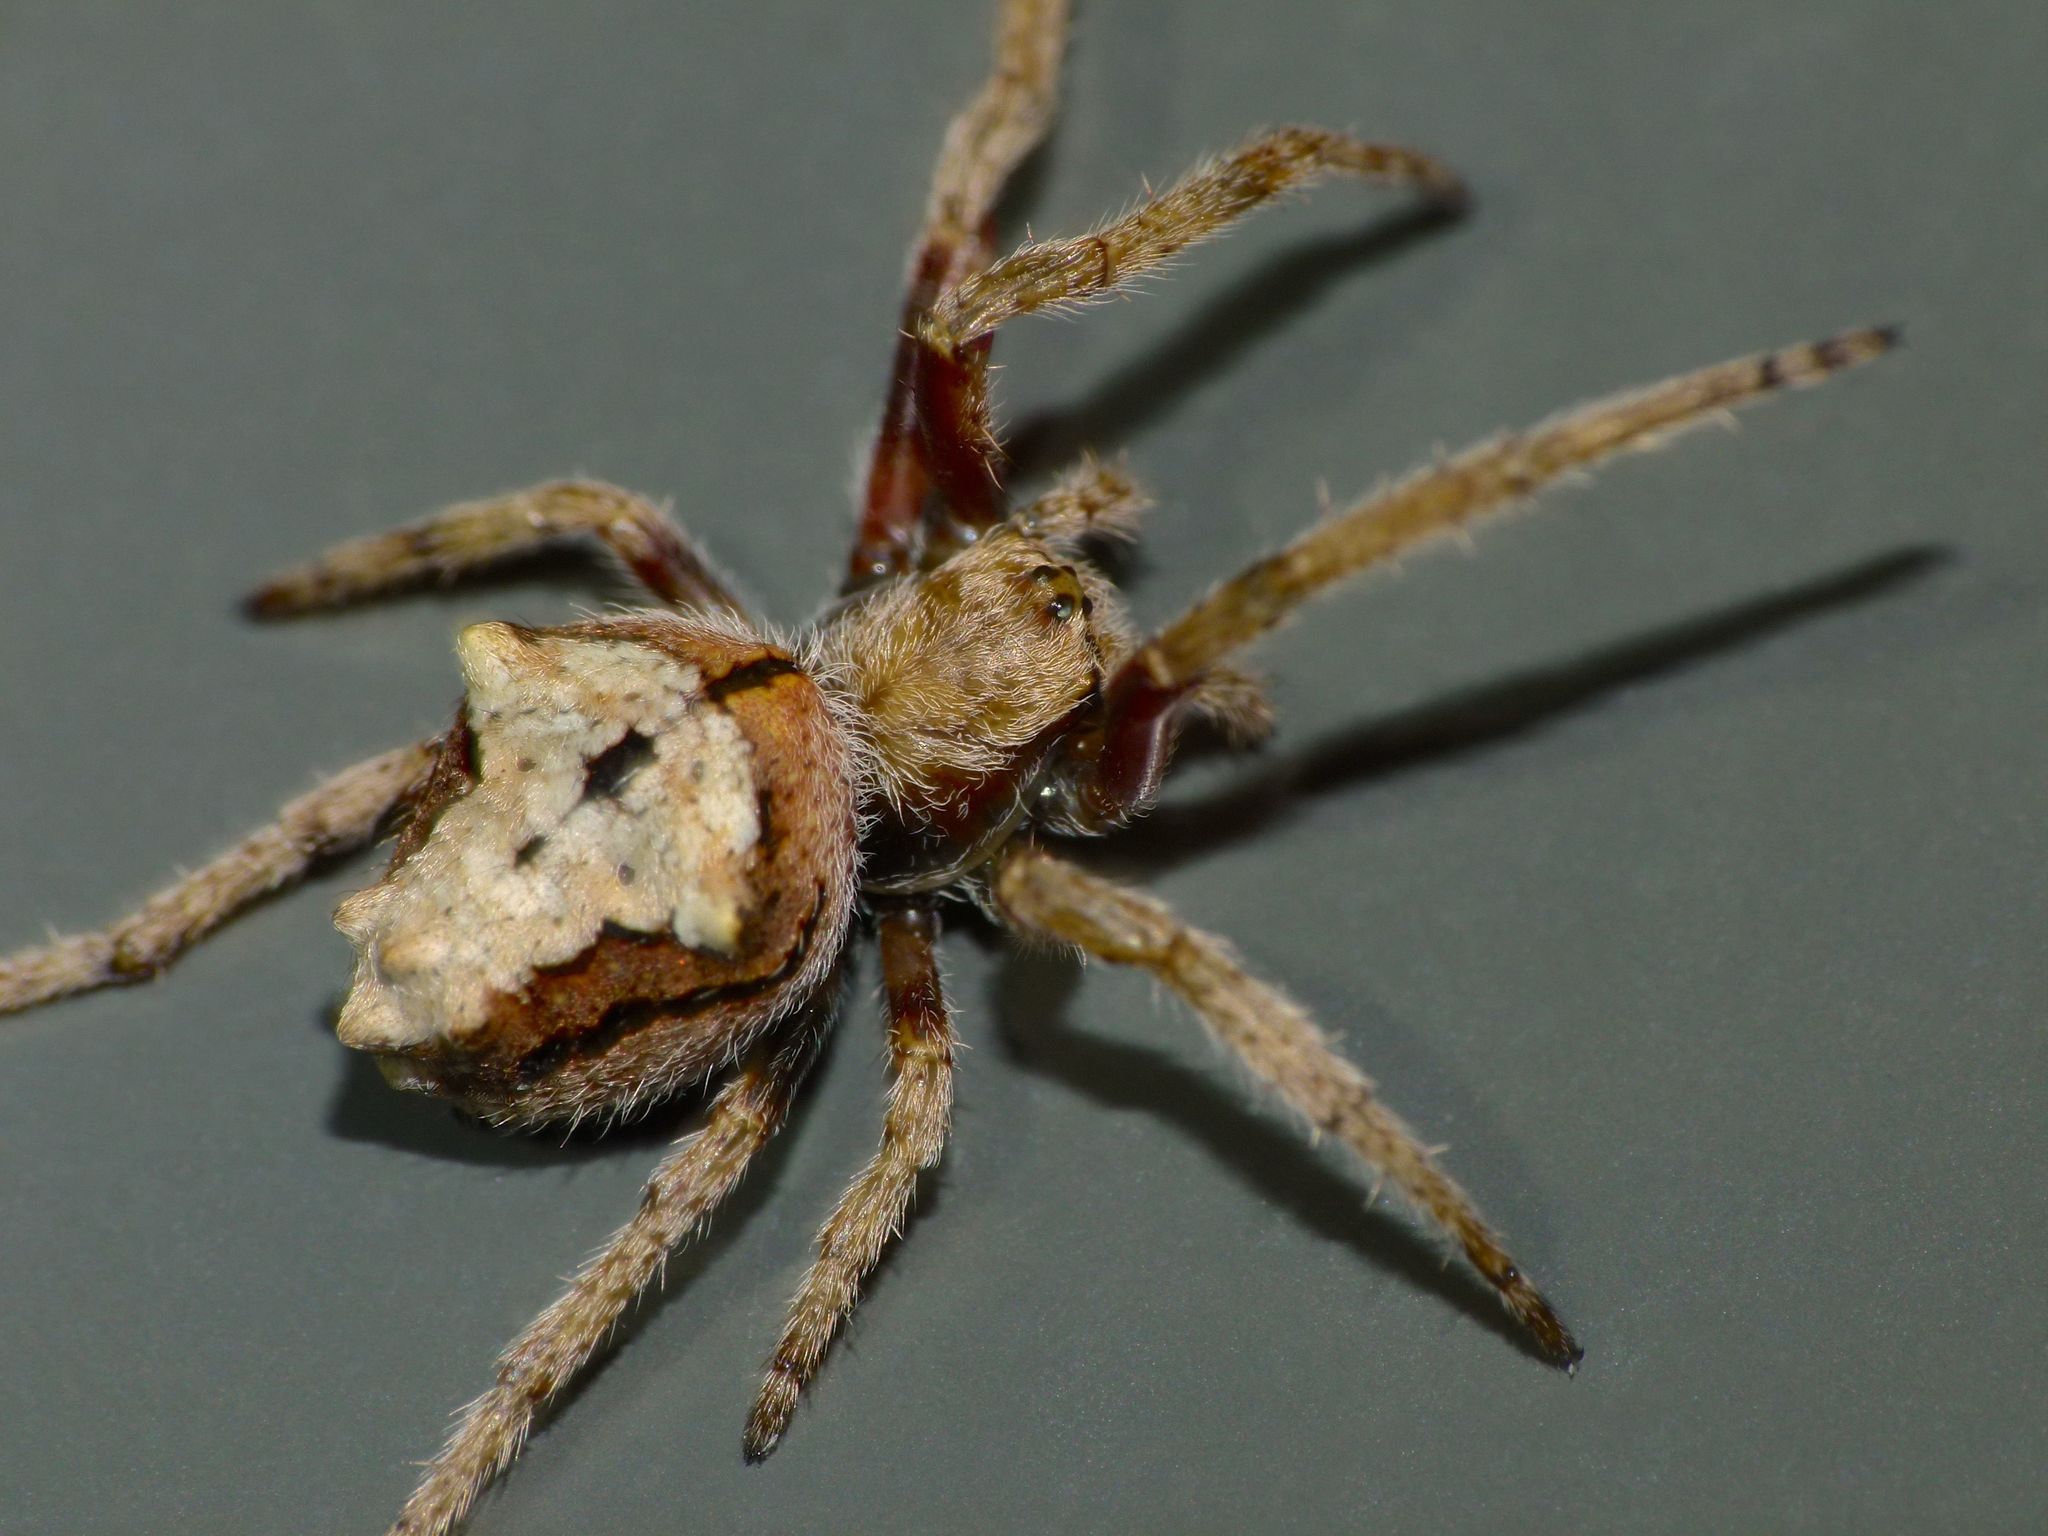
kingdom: Animalia
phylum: Arthropoda
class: Arachnida
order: Araneae
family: Araneidae
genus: Eriophora
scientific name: Eriophora pustulosa
